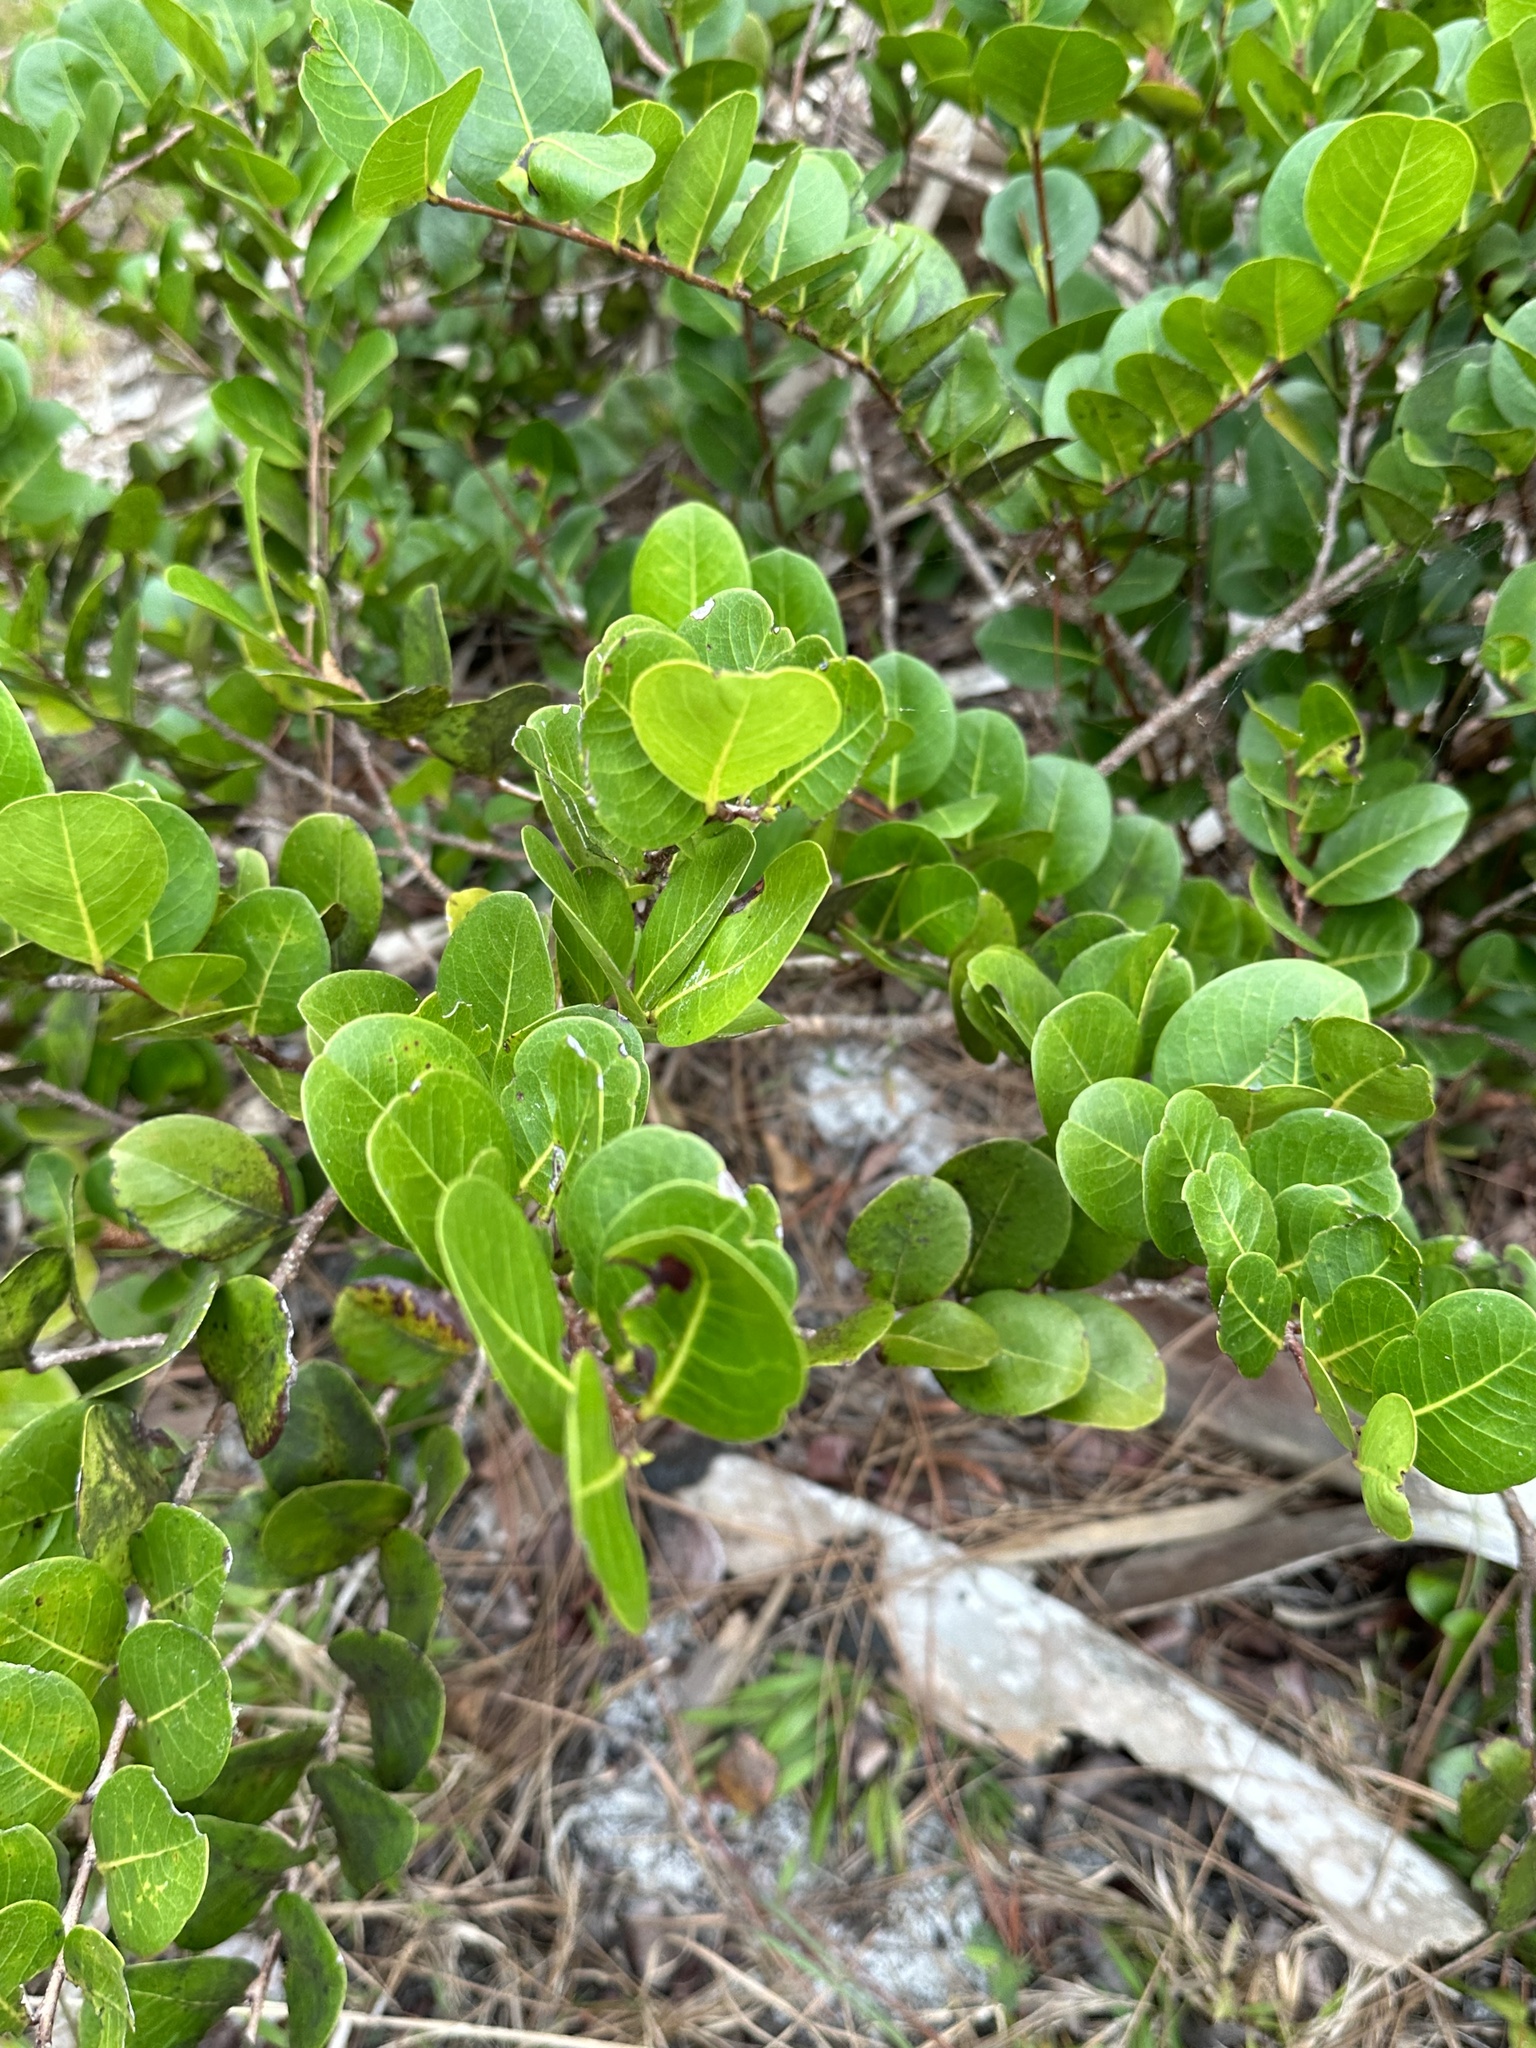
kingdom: Plantae
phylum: Tracheophyta
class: Magnoliopsida
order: Malpighiales
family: Chrysobalanaceae
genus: Chrysobalanus
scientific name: Chrysobalanus icaco
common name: Coco plum
